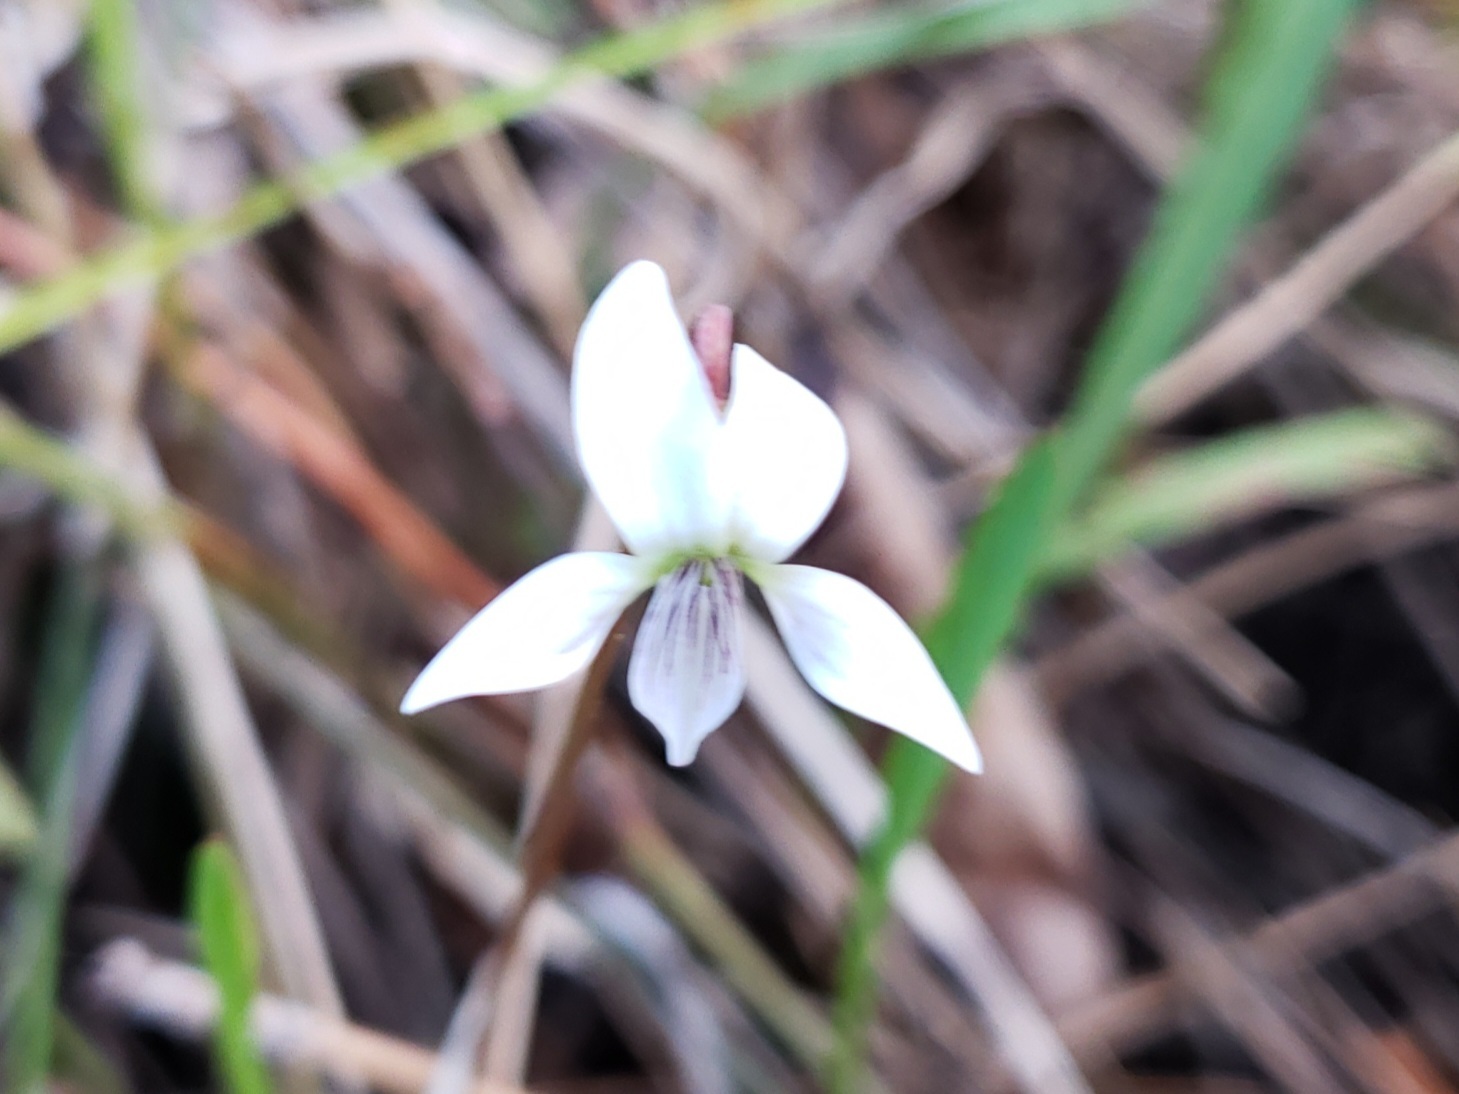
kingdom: Plantae
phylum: Tracheophyta
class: Liliopsida
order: Asparagales
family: Orchidaceae
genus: Zeuxine
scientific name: Zeuxine strateumatica
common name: Soldier's orchid
